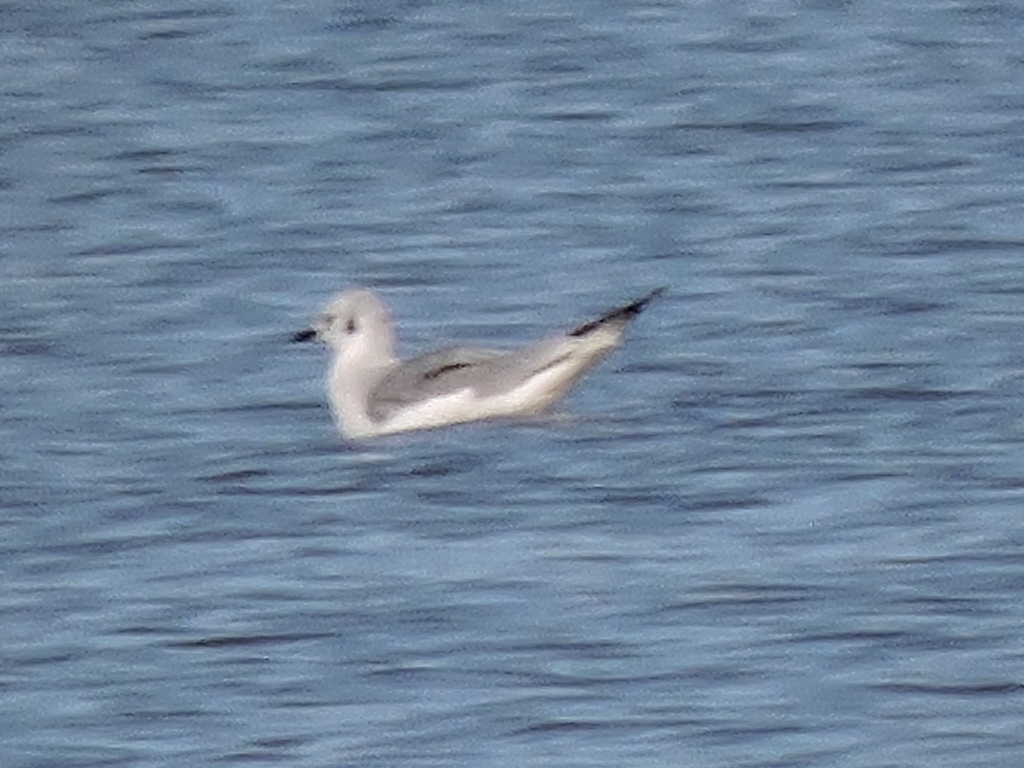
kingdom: Animalia
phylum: Chordata
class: Aves
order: Charadriiformes
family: Laridae
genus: Chroicocephalus
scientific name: Chroicocephalus philadelphia
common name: Bonaparte's gull
